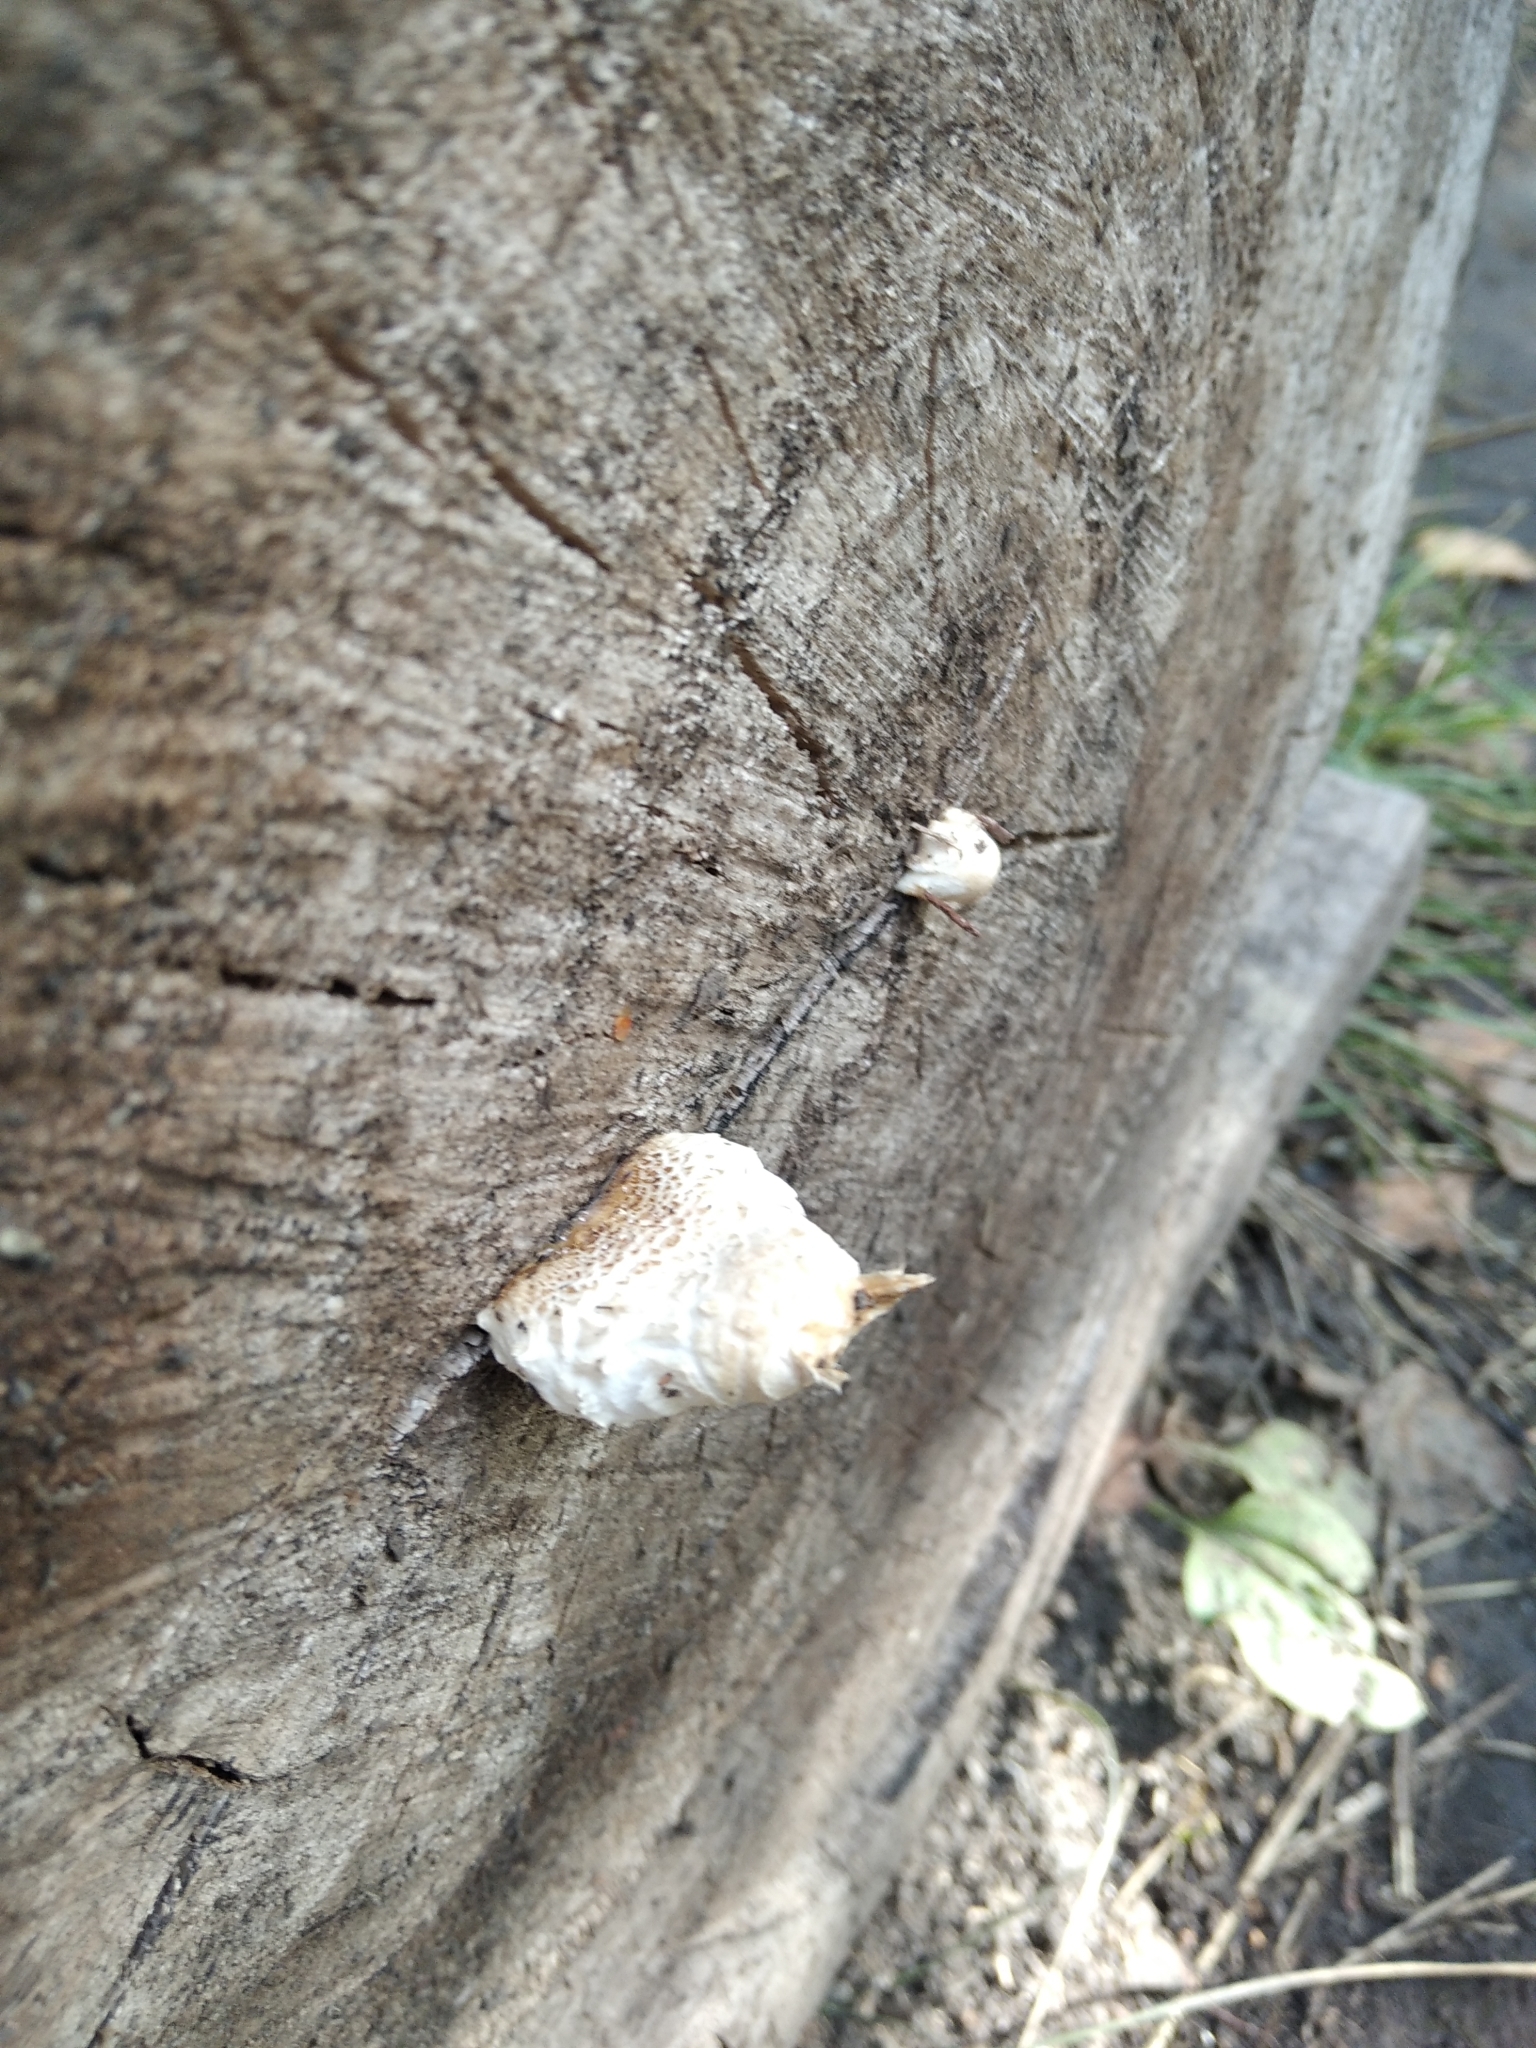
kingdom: Fungi
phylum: Basidiomycota
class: Agaricomycetes
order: Agaricales
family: Strophariaceae
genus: Pholiota
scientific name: Pholiota populnea
